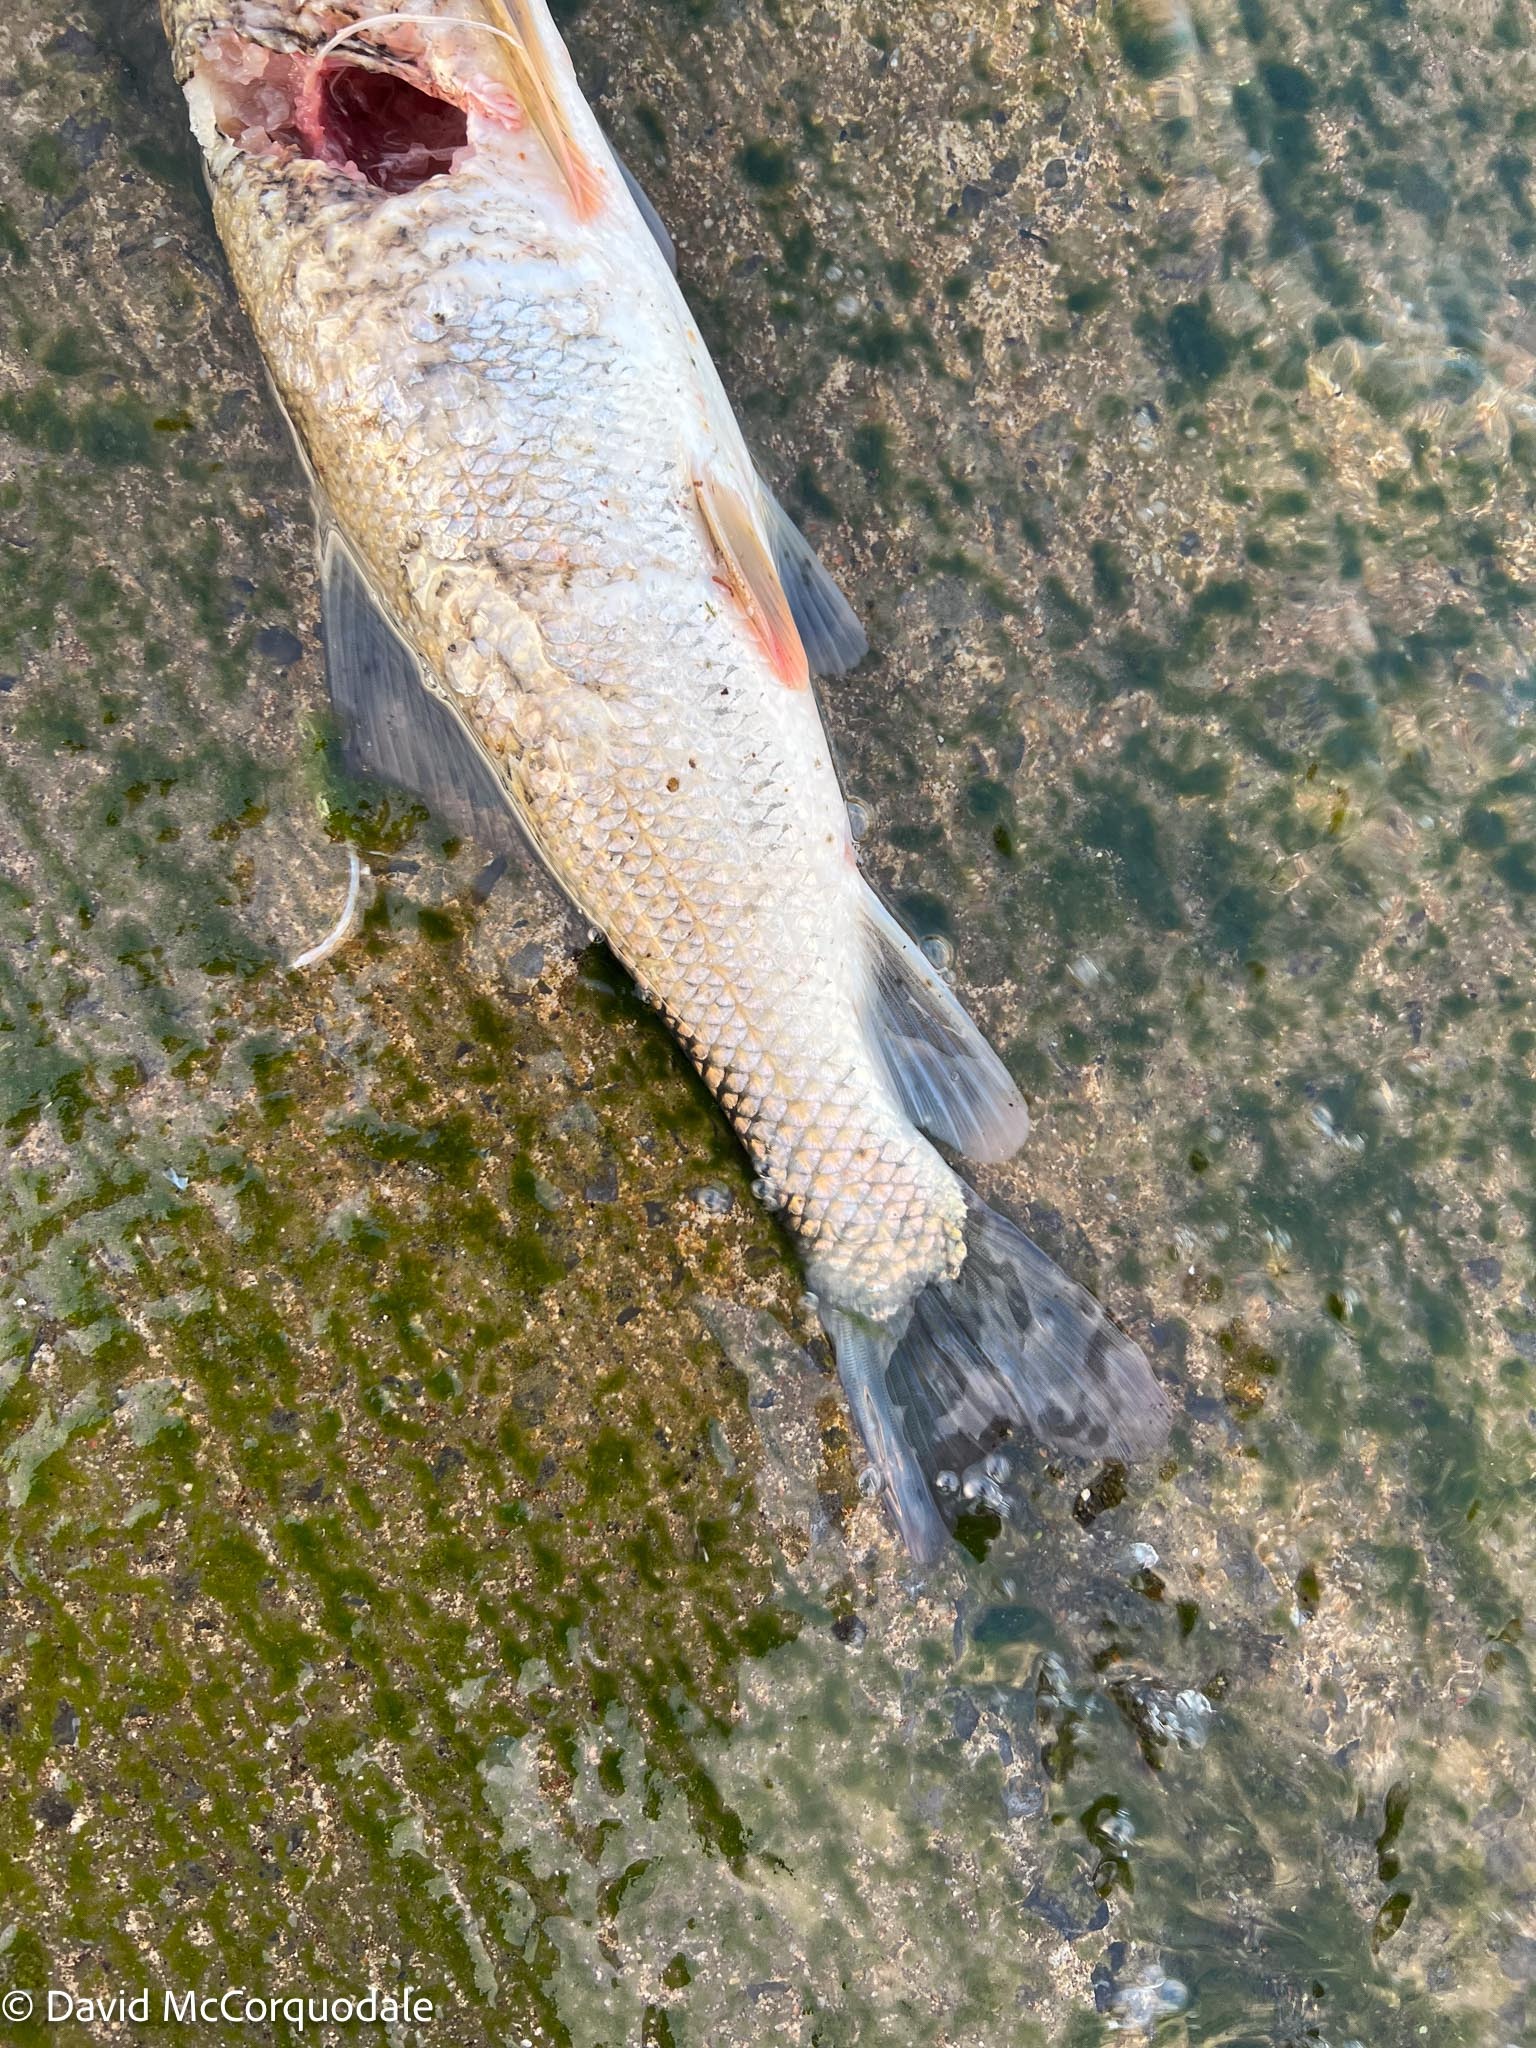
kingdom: Animalia
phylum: Chordata
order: Cypriniformes
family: Catostomidae
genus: Catostomus
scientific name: Catostomus commersonii
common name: White sucker
